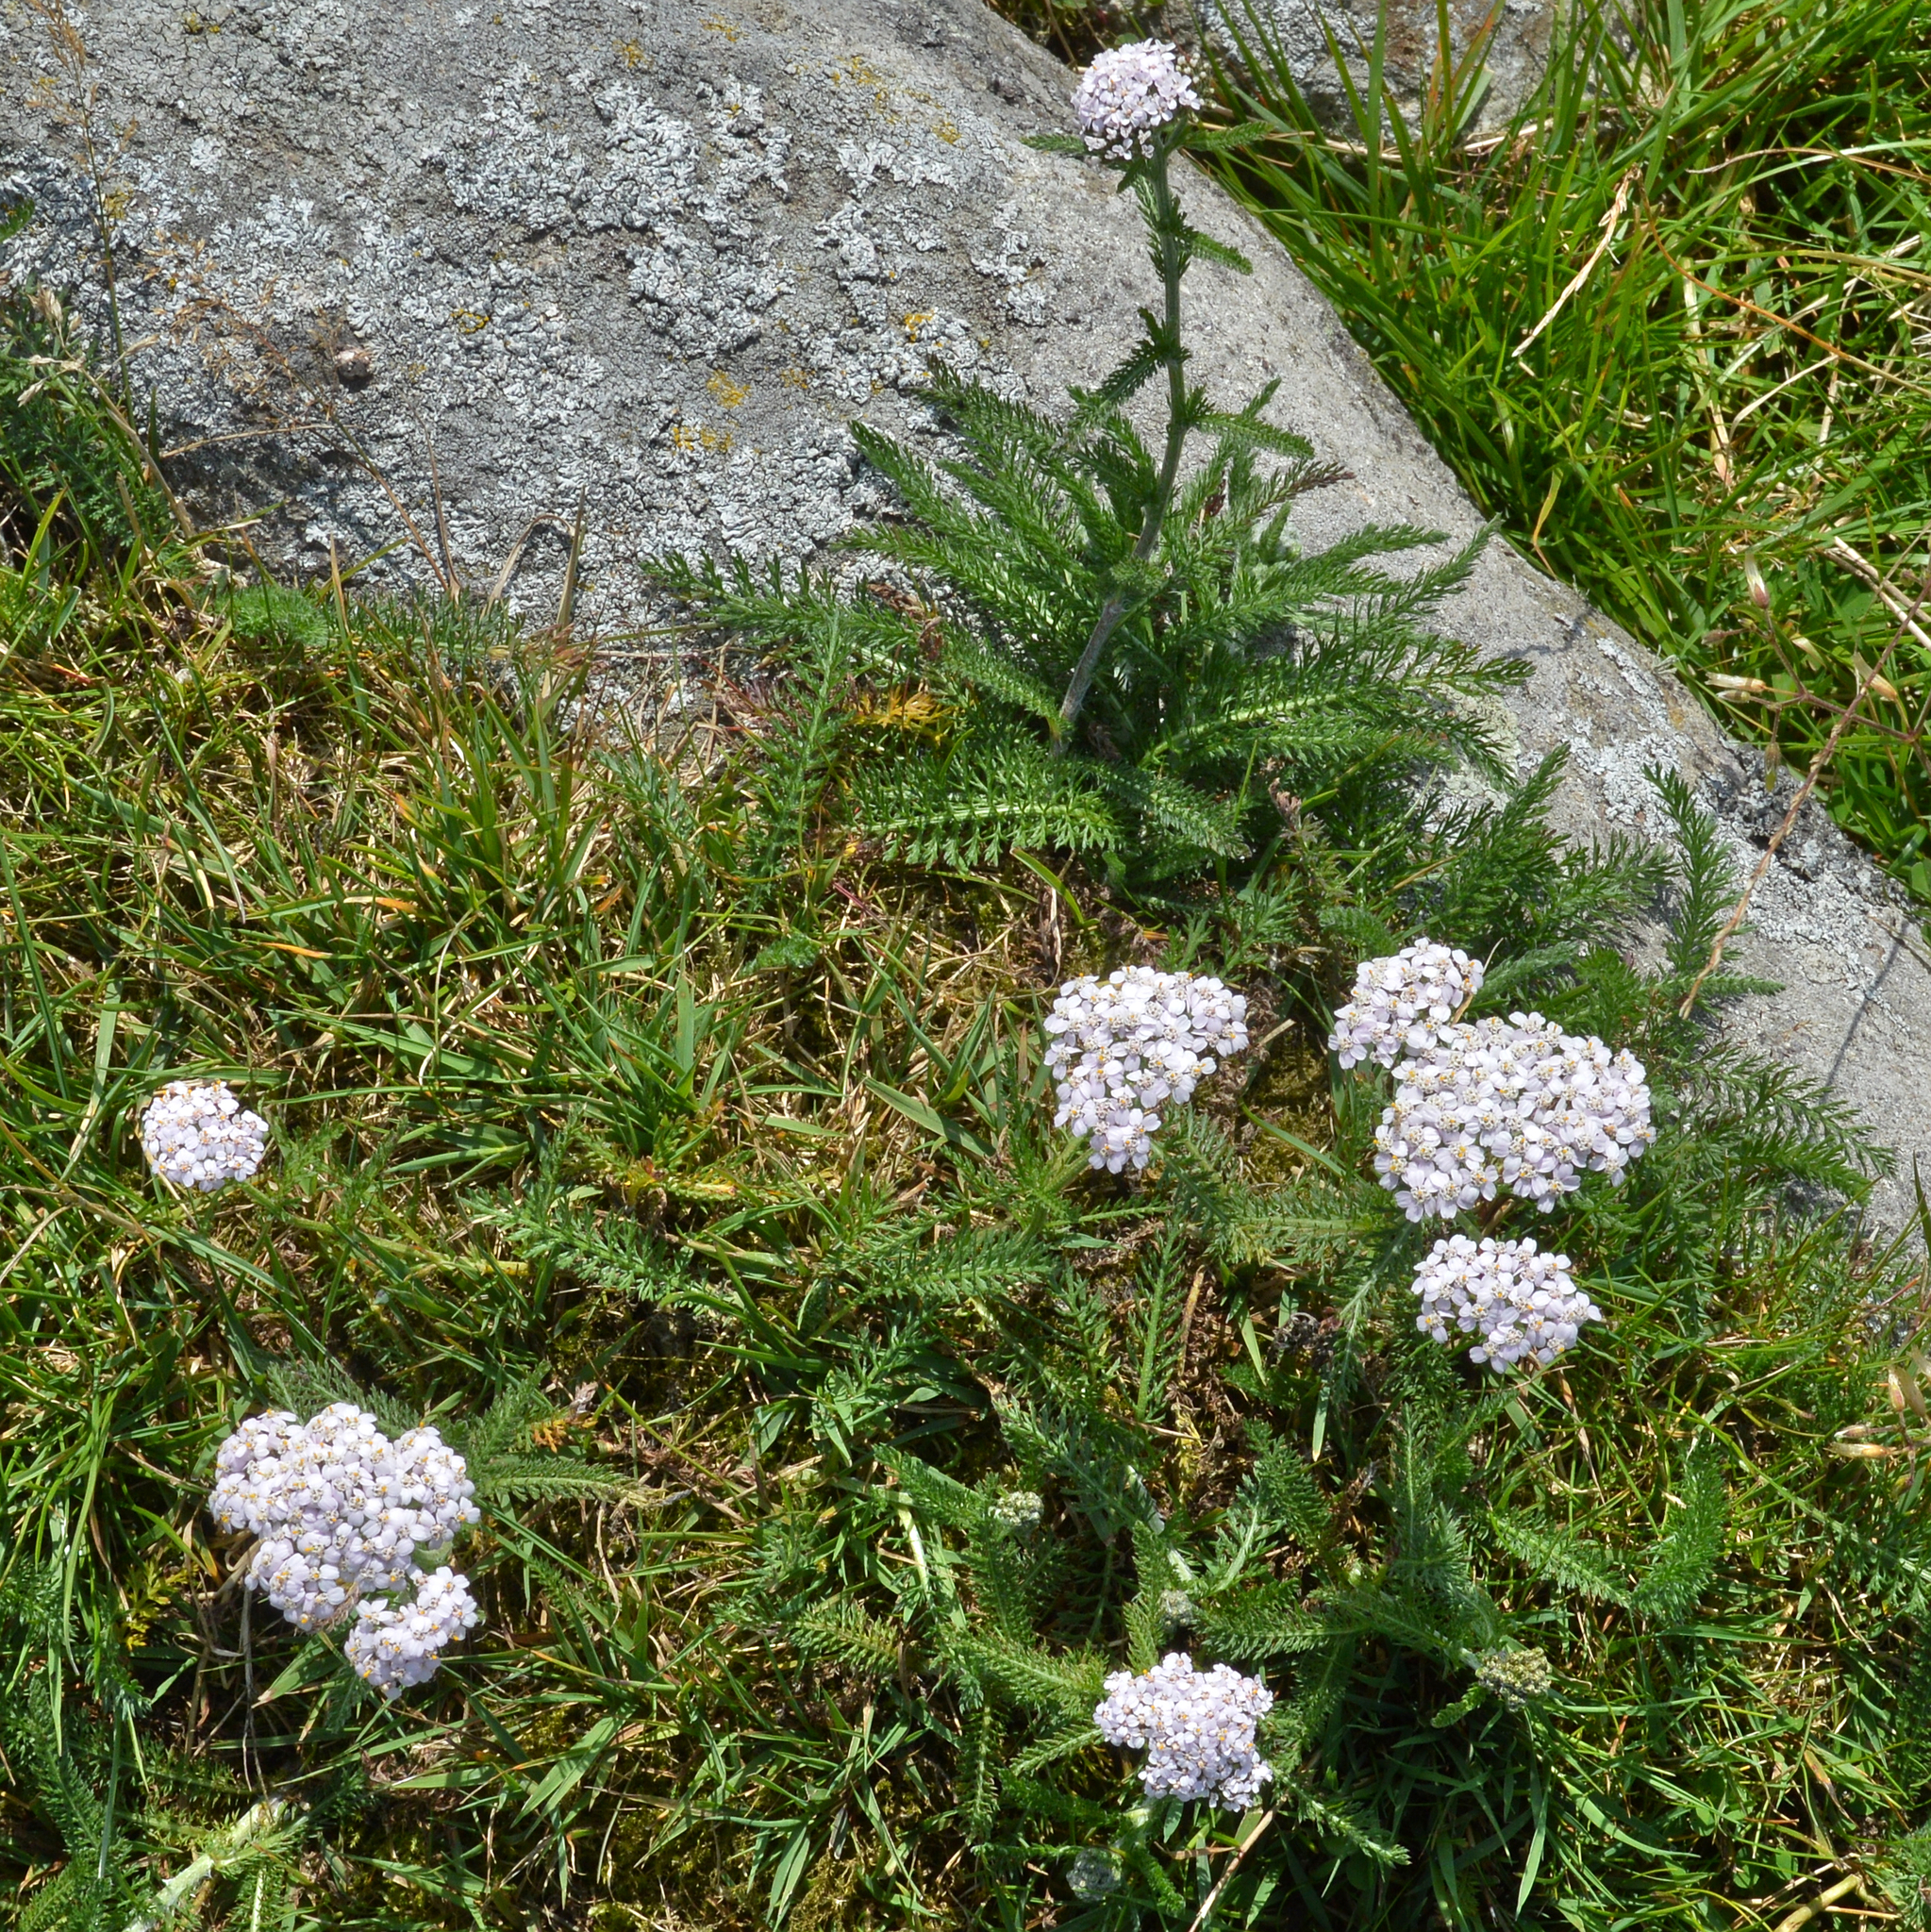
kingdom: Plantae
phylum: Tracheophyta
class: Magnoliopsida
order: Asterales
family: Asteraceae
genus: Achillea
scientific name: Achillea millefolium
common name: Yarrow
